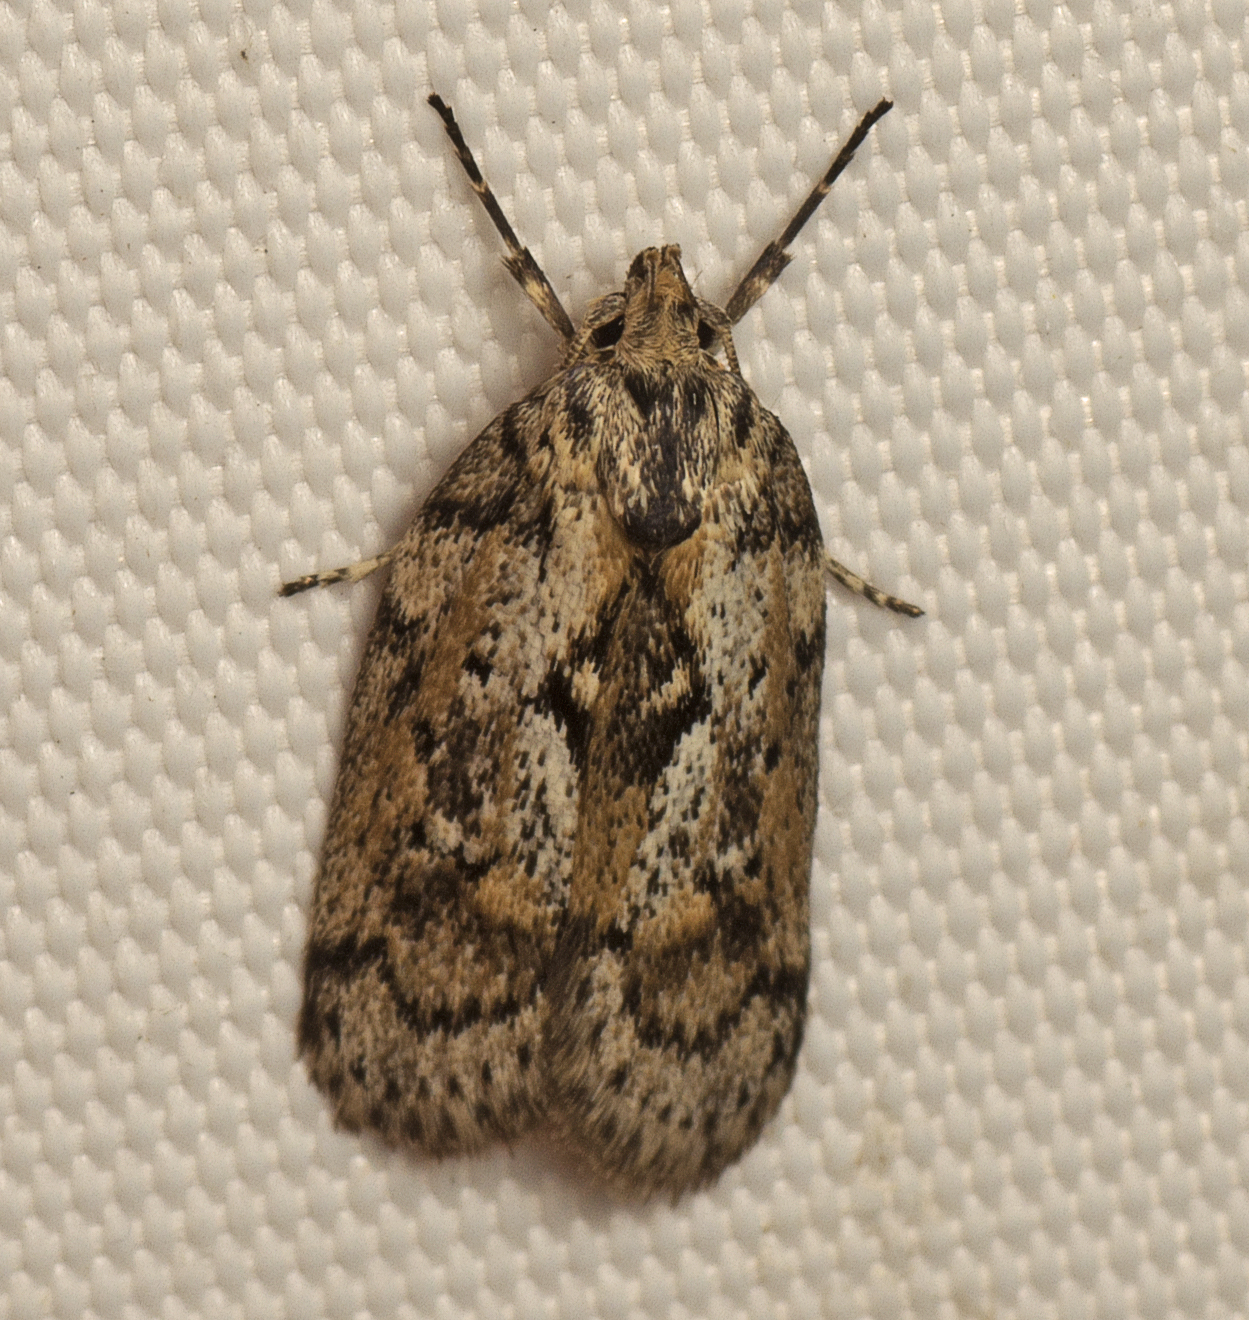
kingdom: Animalia
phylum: Arthropoda
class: Insecta
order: Lepidoptera
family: Oecophoridae
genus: Philobota
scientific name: Philobota baryptera
